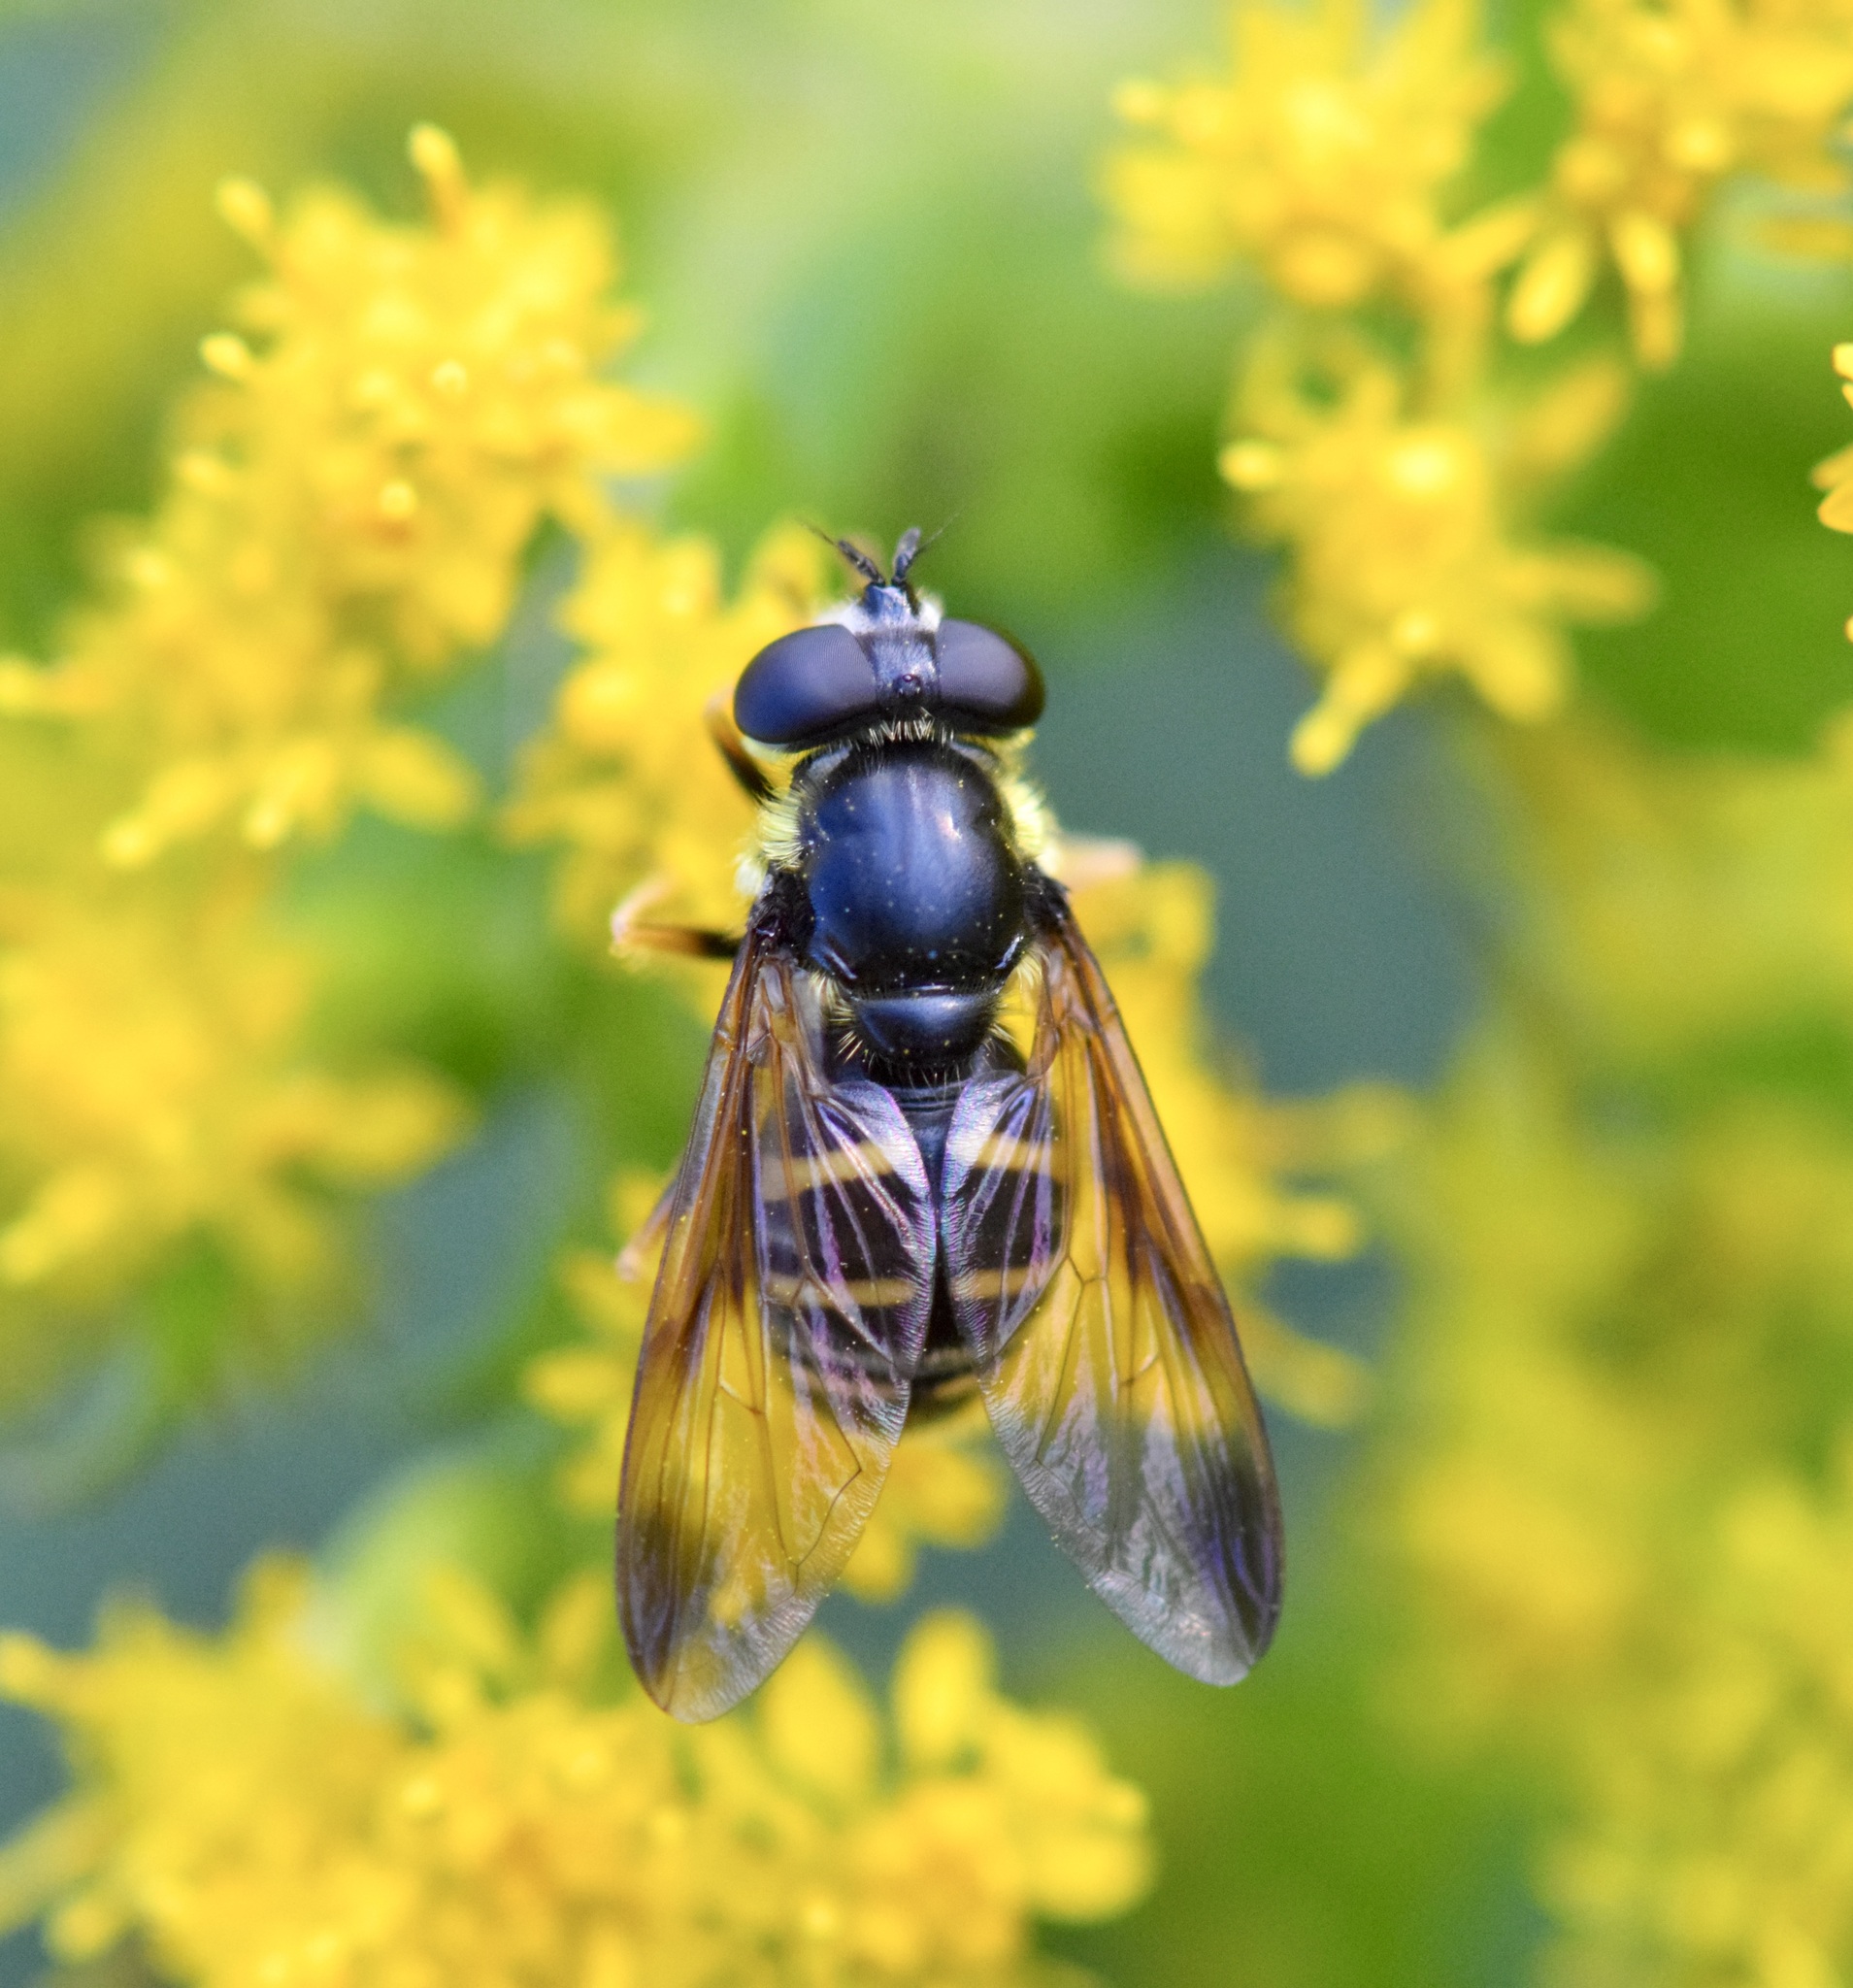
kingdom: Animalia
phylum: Arthropoda
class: Insecta
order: Diptera
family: Syrphidae
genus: Sericomyia
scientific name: Sericomyia chrysotoxoides
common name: Oblique-banded pond fly
